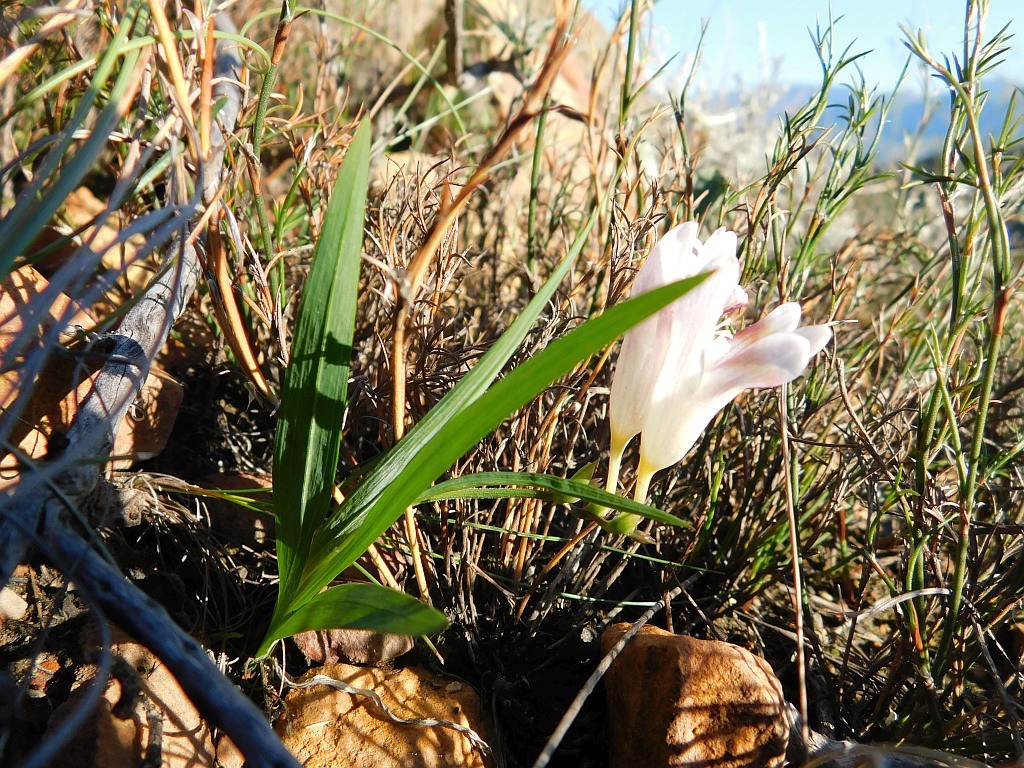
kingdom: Plantae
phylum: Tracheophyta
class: Liliopsida
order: Asparagales
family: Iridaceae
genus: Freesia
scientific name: Freesia caryophyllacea
